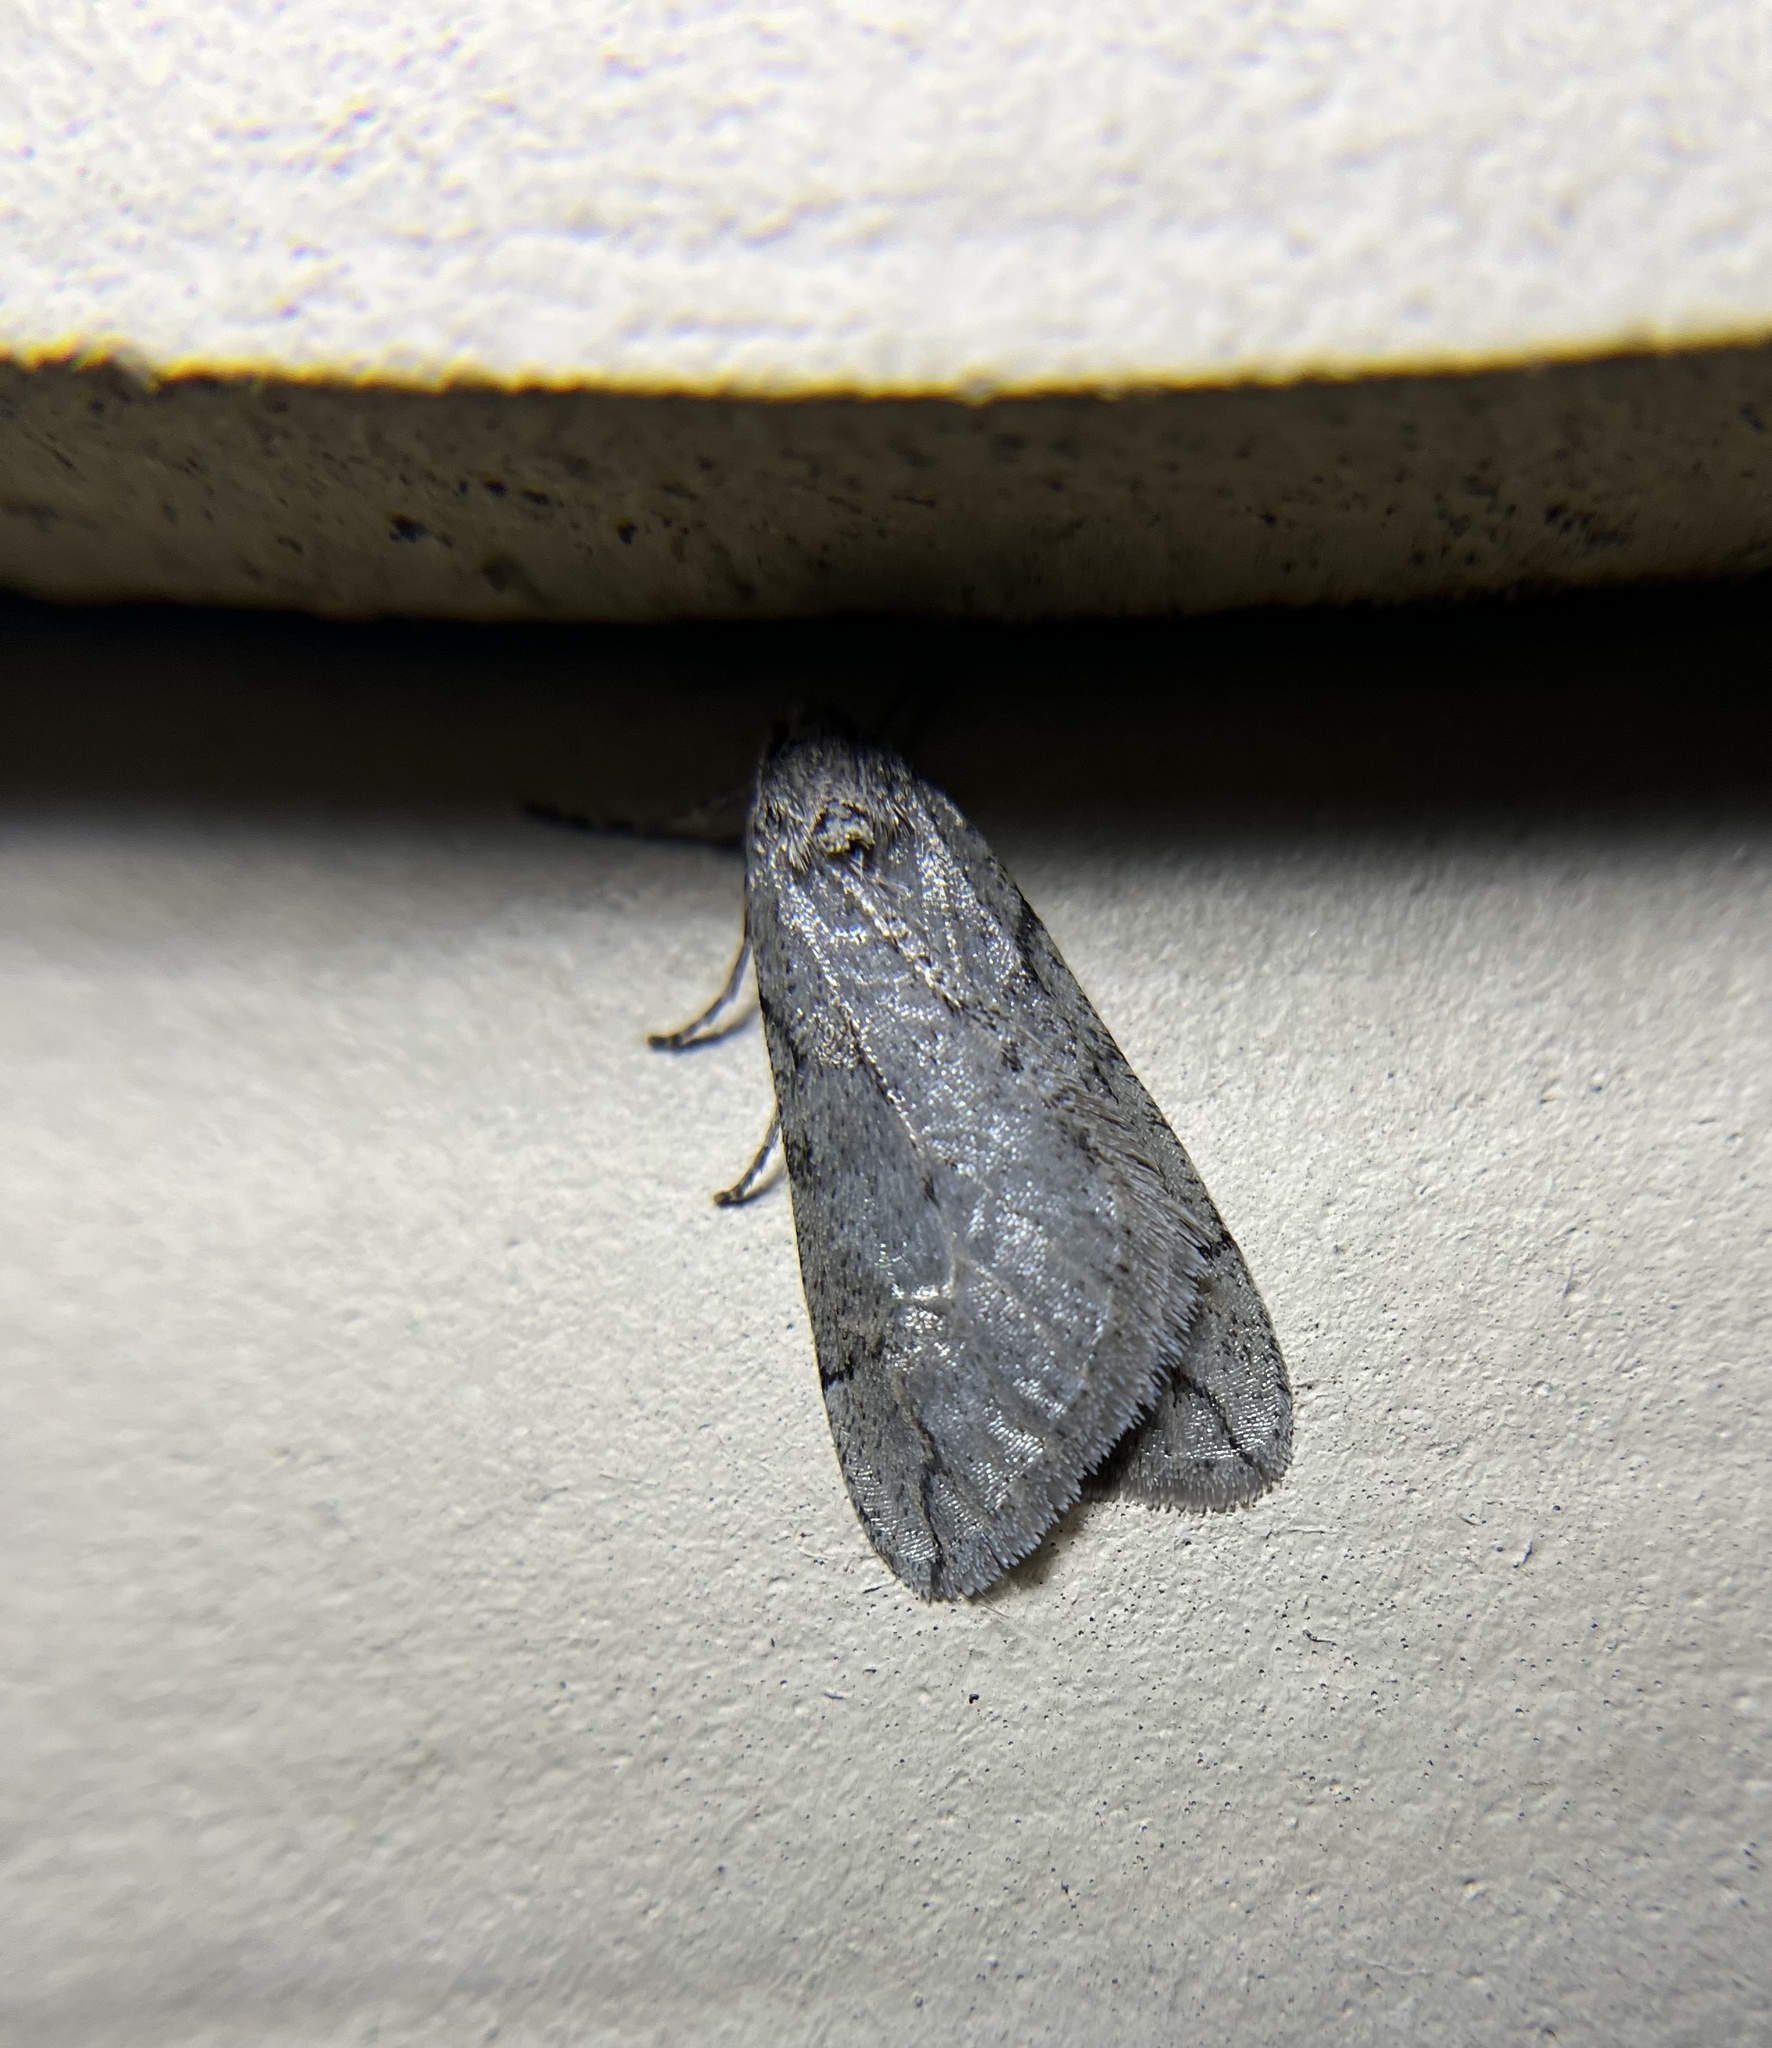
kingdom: Animalia
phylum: Arthropoda
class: Insecta
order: Lepidoptera
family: Geometridae
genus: Paleacrita
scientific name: Paleacrita vernata
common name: Spring cankerworm
